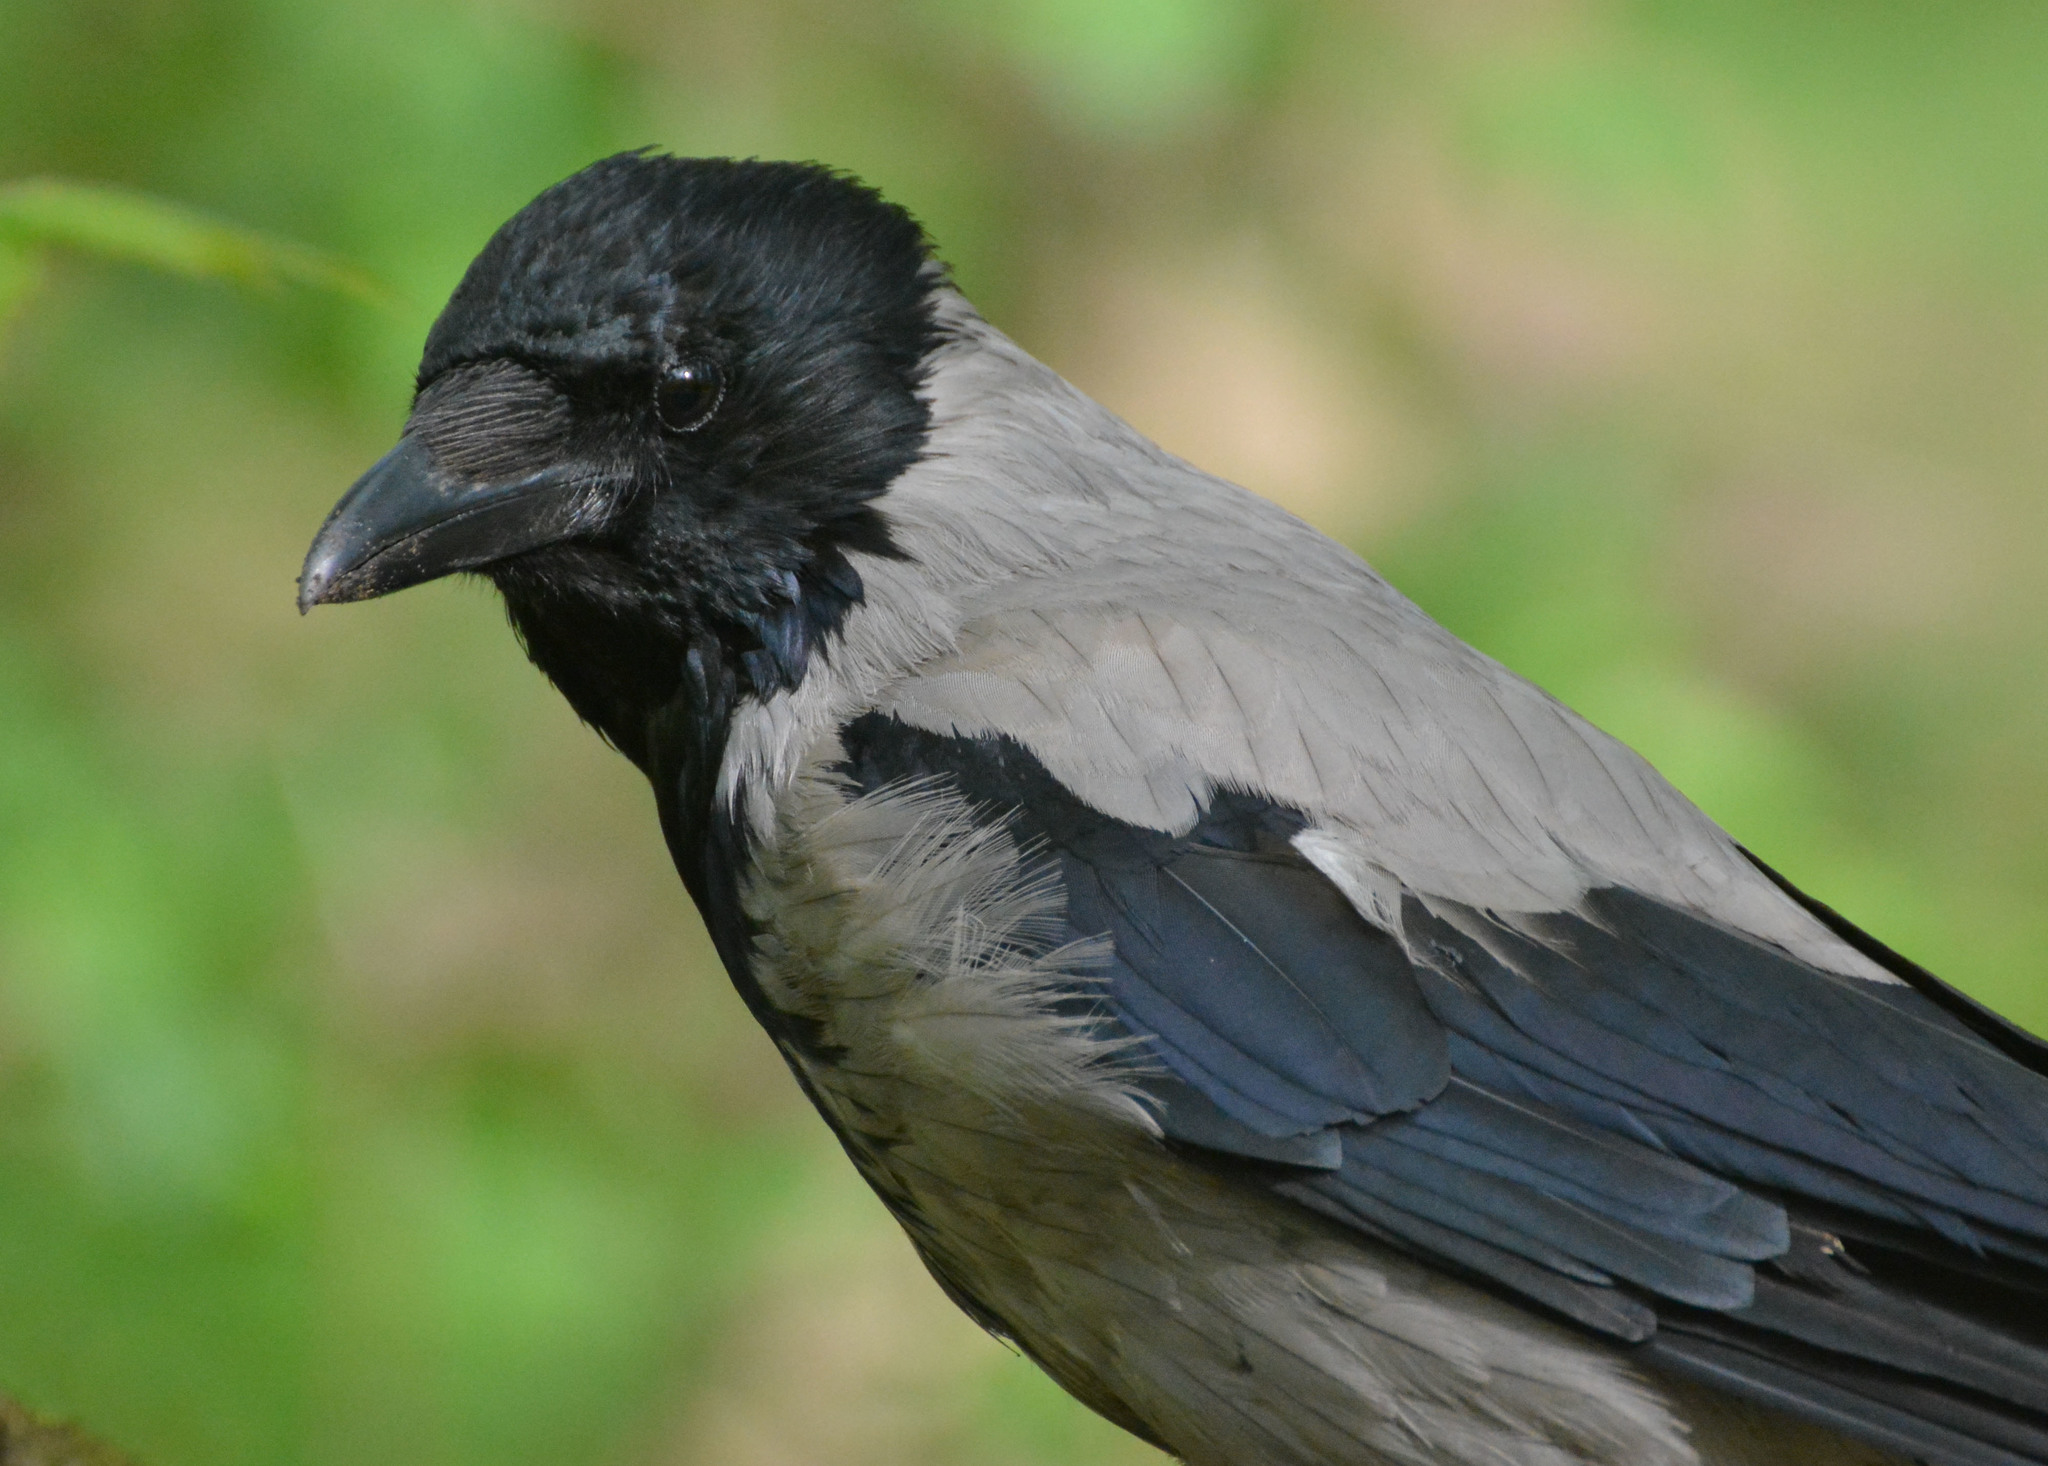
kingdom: Animalia
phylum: Chordata
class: Aves
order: Passeriformes
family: Corvidae
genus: Corvus
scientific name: Corvus cornix
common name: Hooded crow
